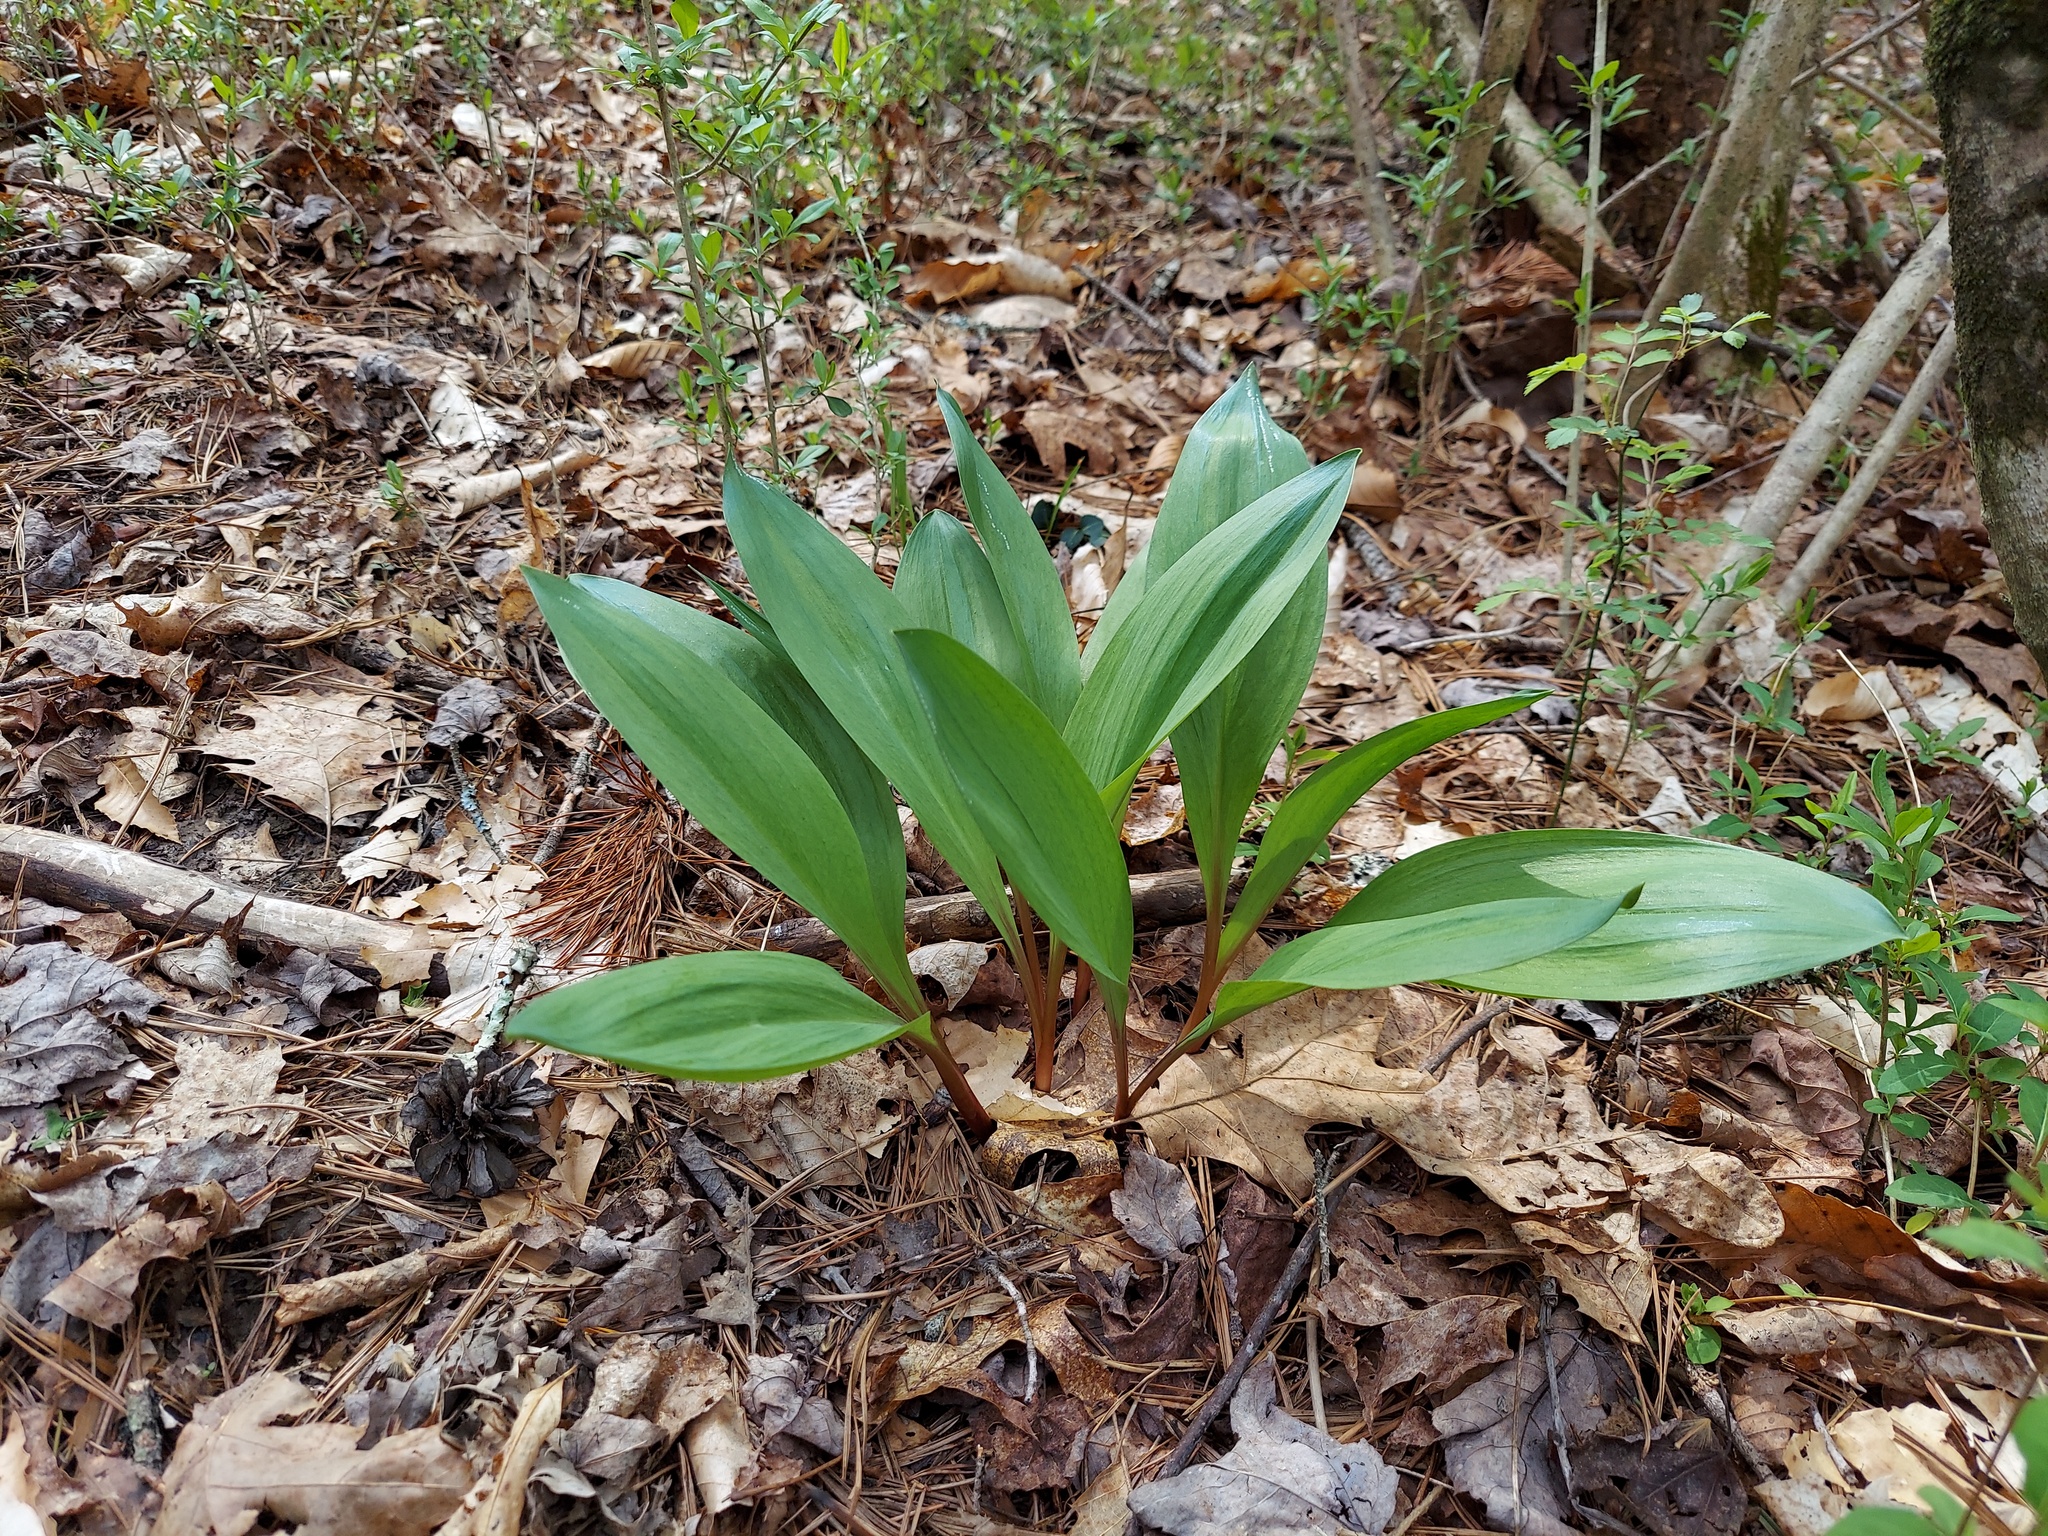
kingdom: Animalia
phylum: Arthropoda
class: Insecta
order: Diptera
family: Agromyzidae
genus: Phytomyza
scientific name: Phytomyza gymnostoma
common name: Allium leafminer
